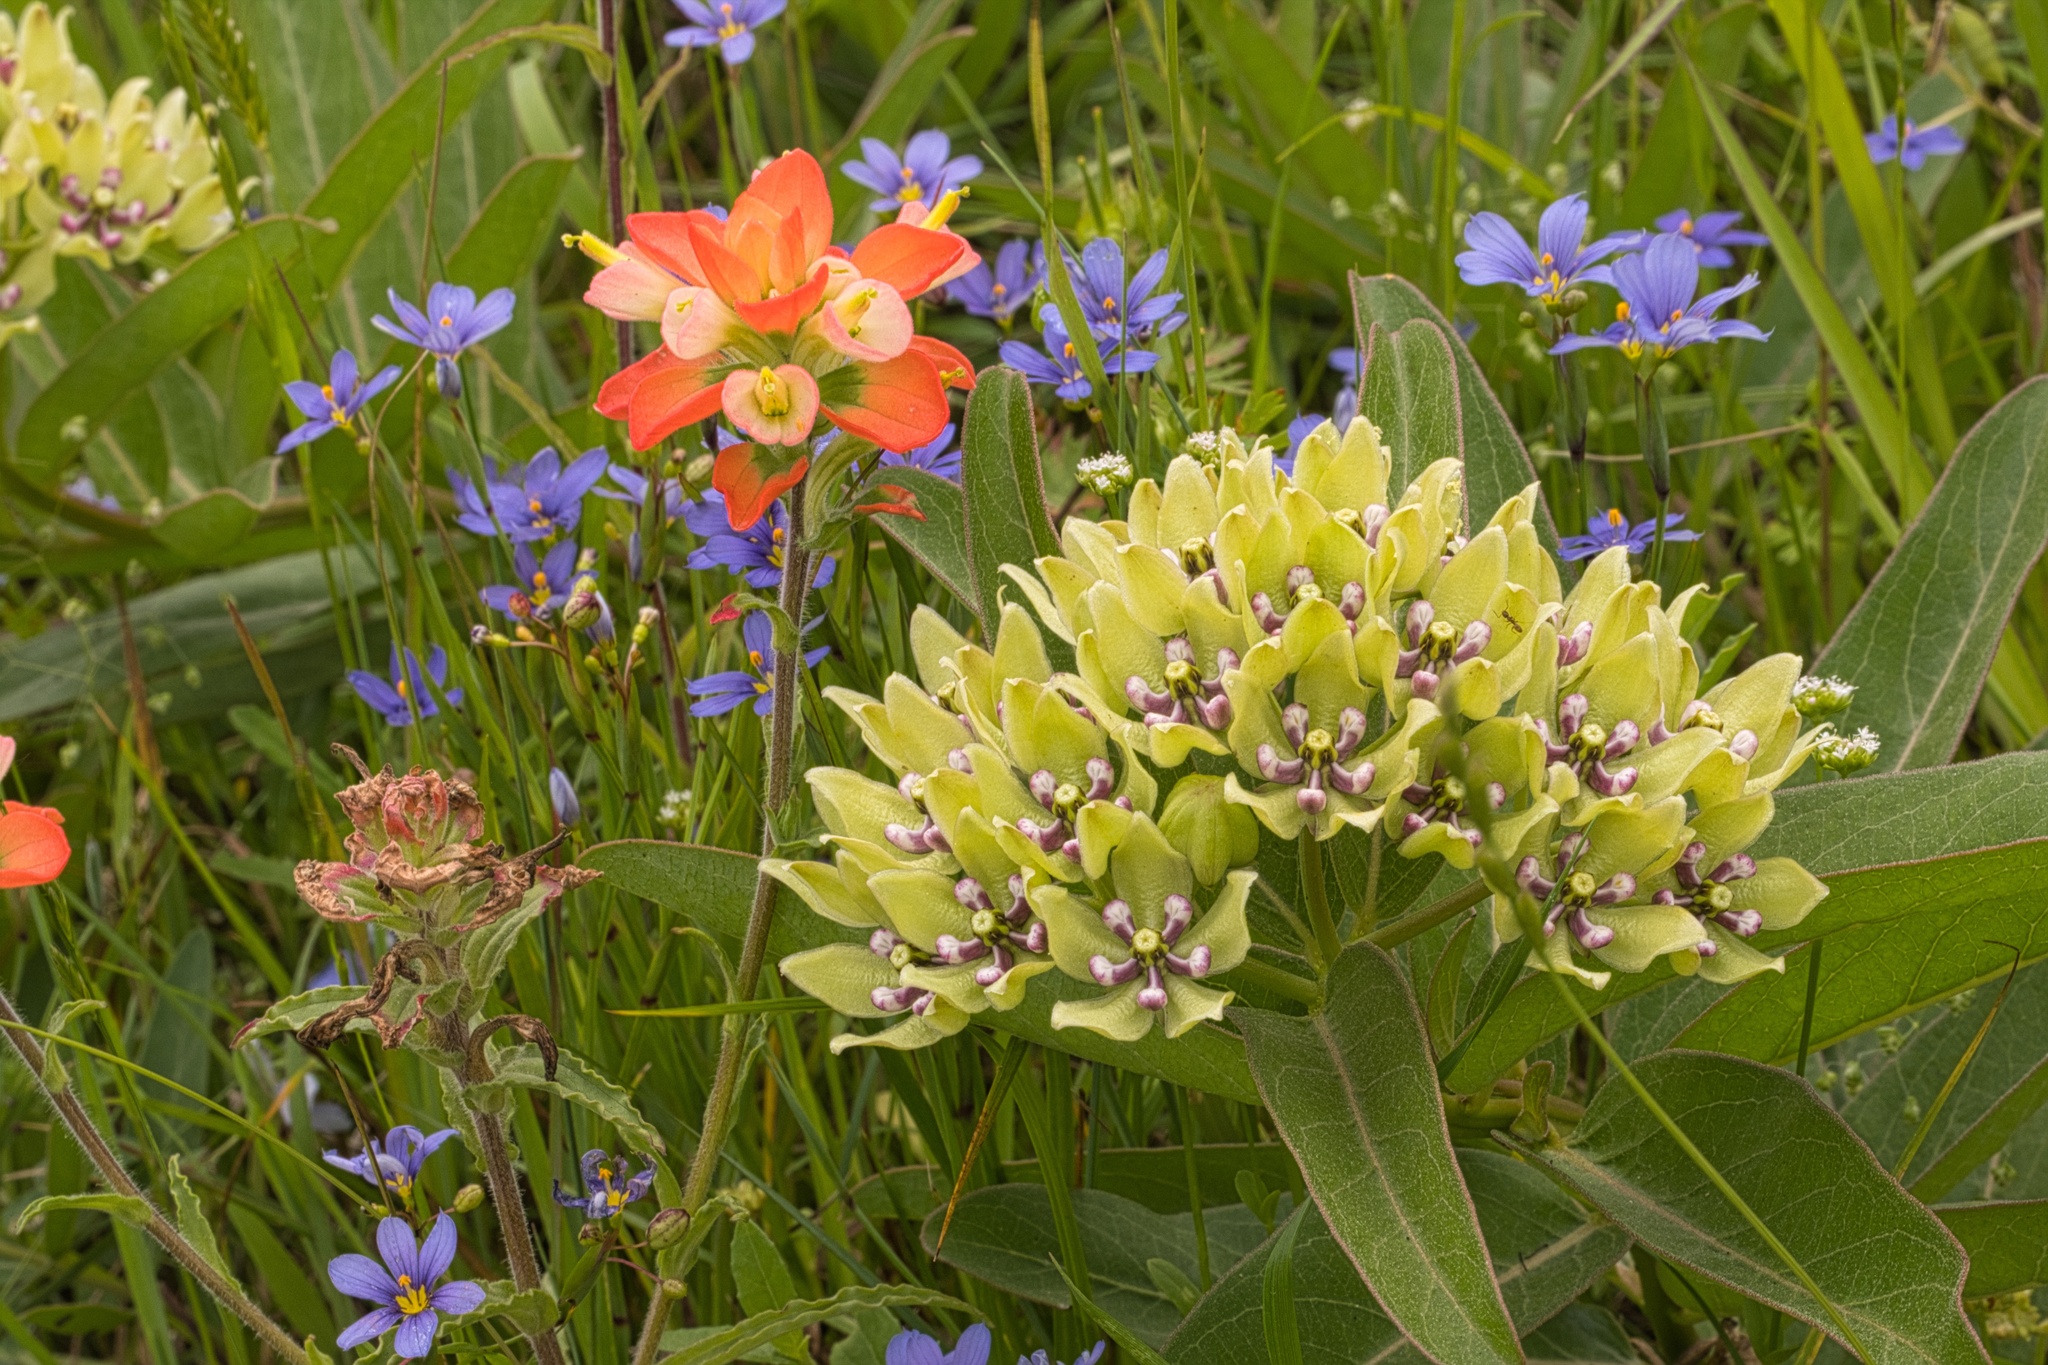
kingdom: Plantae
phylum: Tracheophyta
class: Magnoliopsida
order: Gentianales
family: Apocynaceae
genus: Asclepias
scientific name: Asclepias viridis
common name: Antelope-horns
